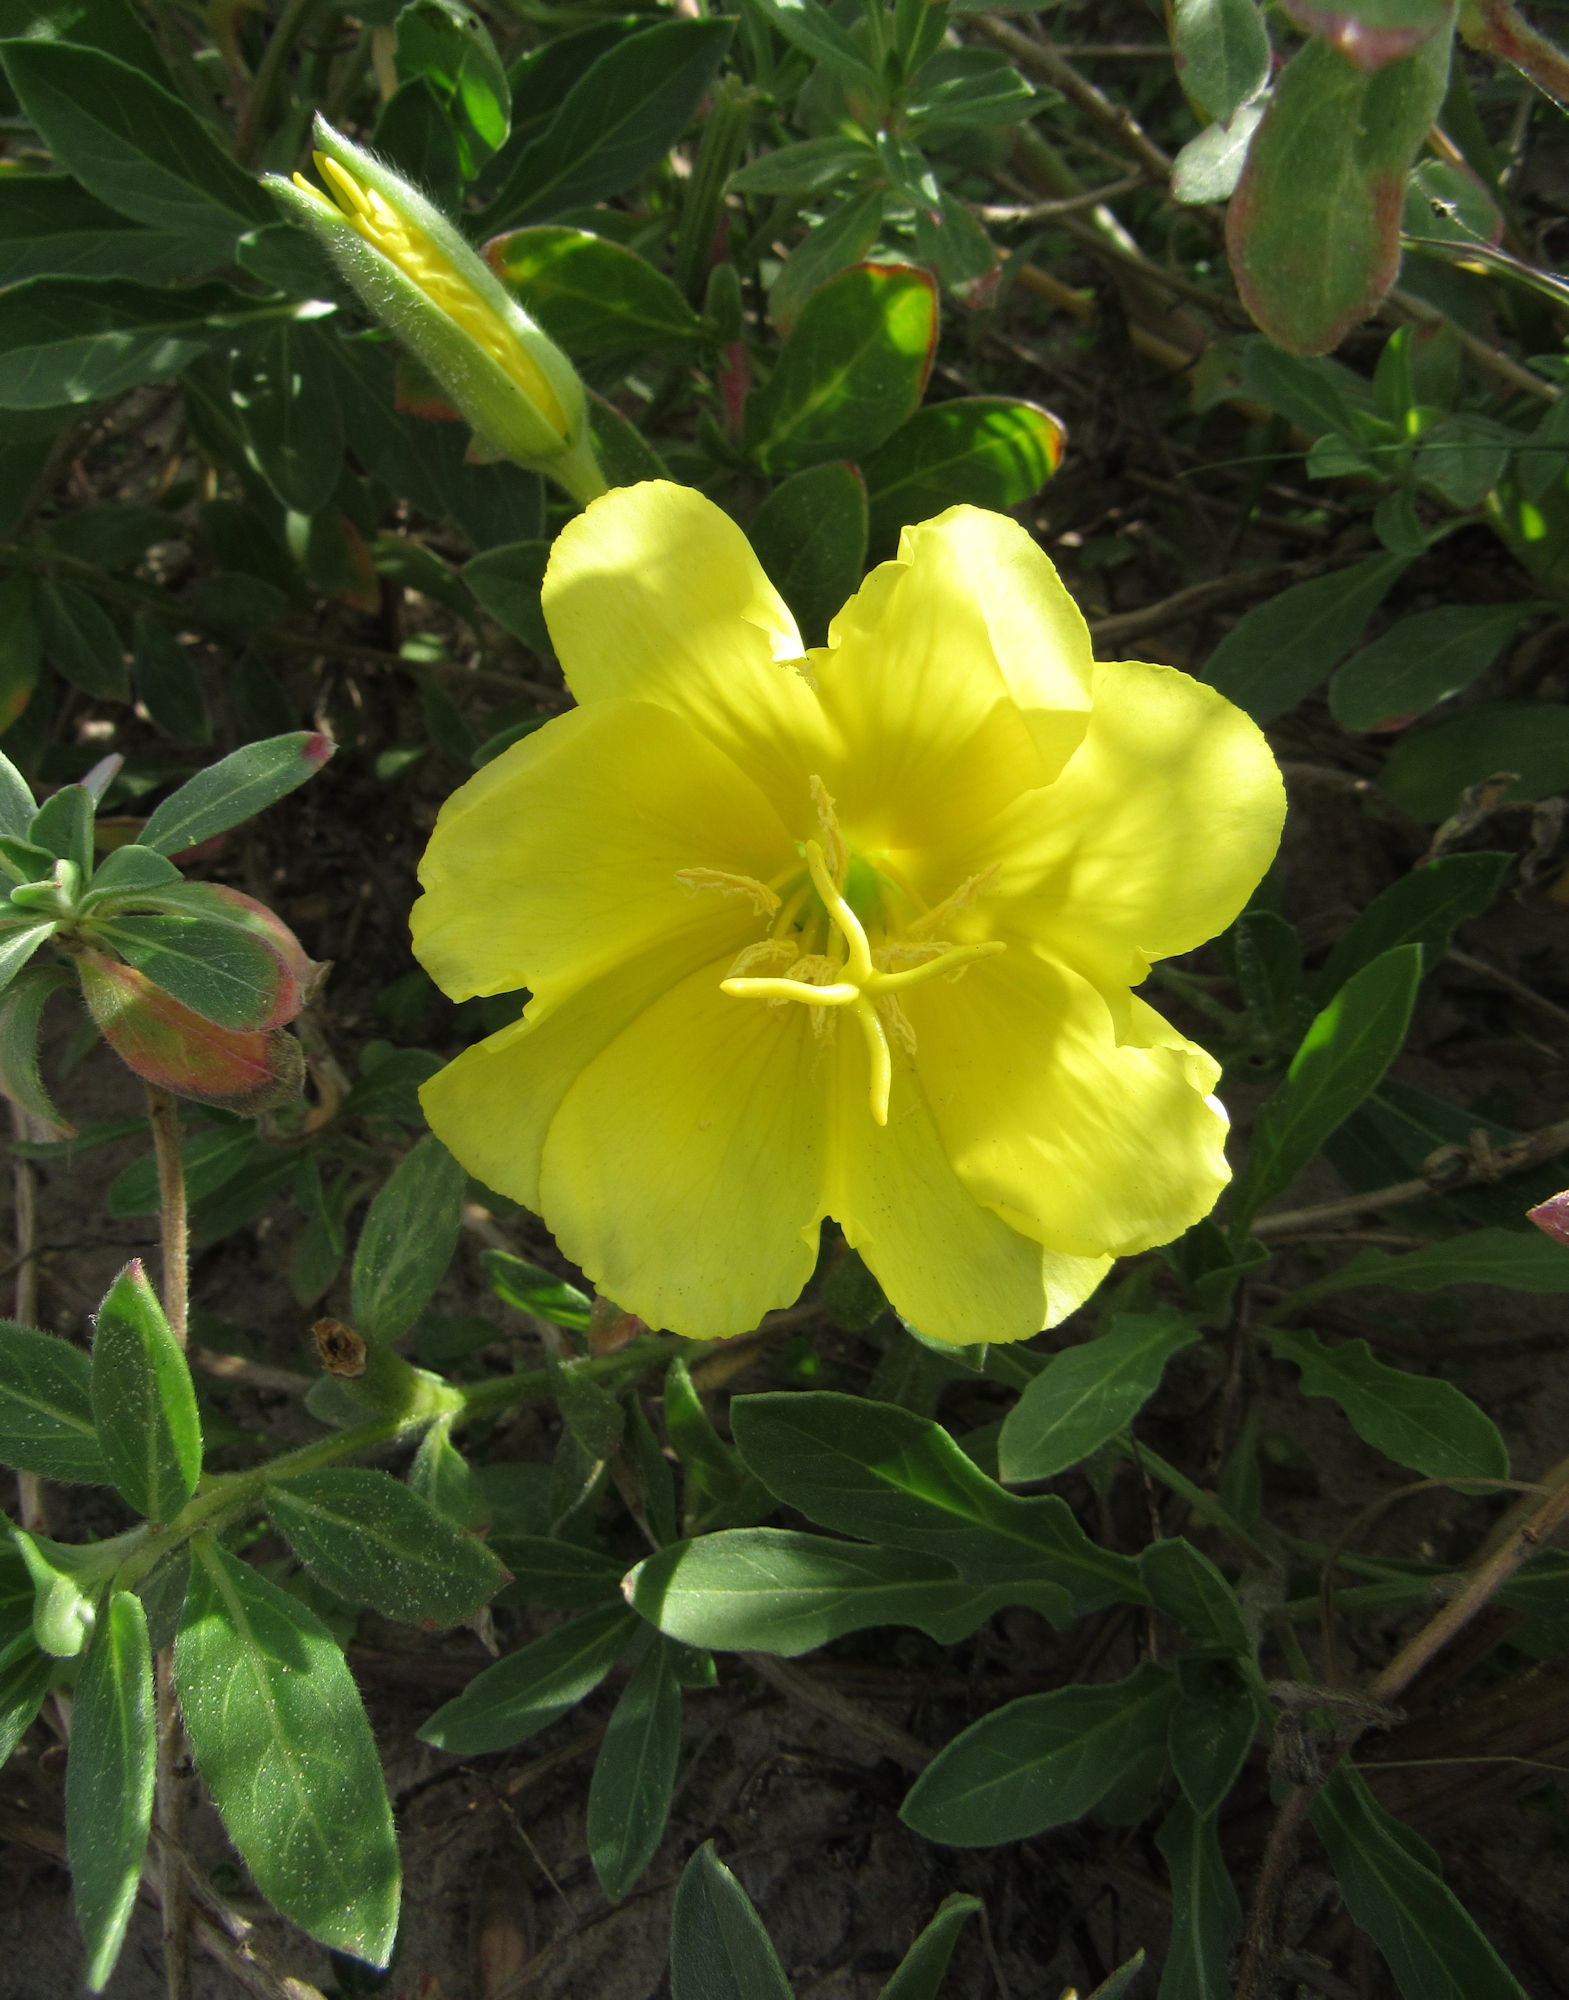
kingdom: Plantae
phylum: Tracheophyta
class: Magnoliopsida
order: Myrtales
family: Onagraceae
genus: Oenothera
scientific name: Oenothera drummondii
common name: Beach evening-primrose
